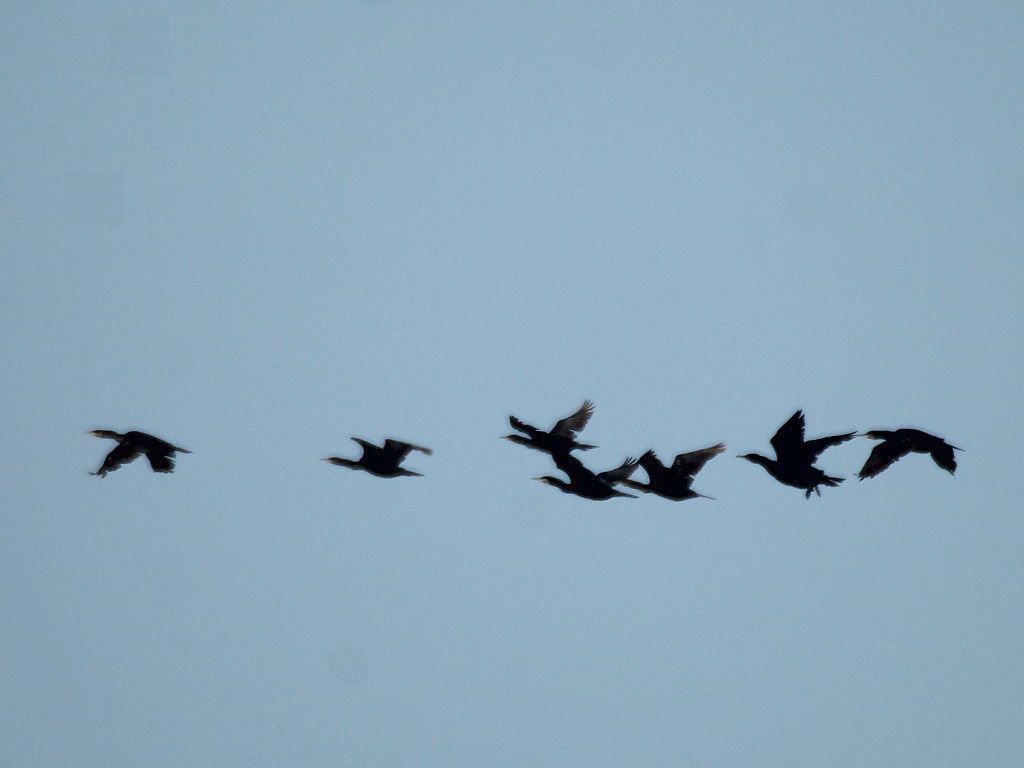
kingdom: Animalia
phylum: Chordata
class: Aves
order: Suliformes
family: Phalacrocoracidae
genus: Phalacrocorax
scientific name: Phalacrocorax carbo
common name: Great cormorant
